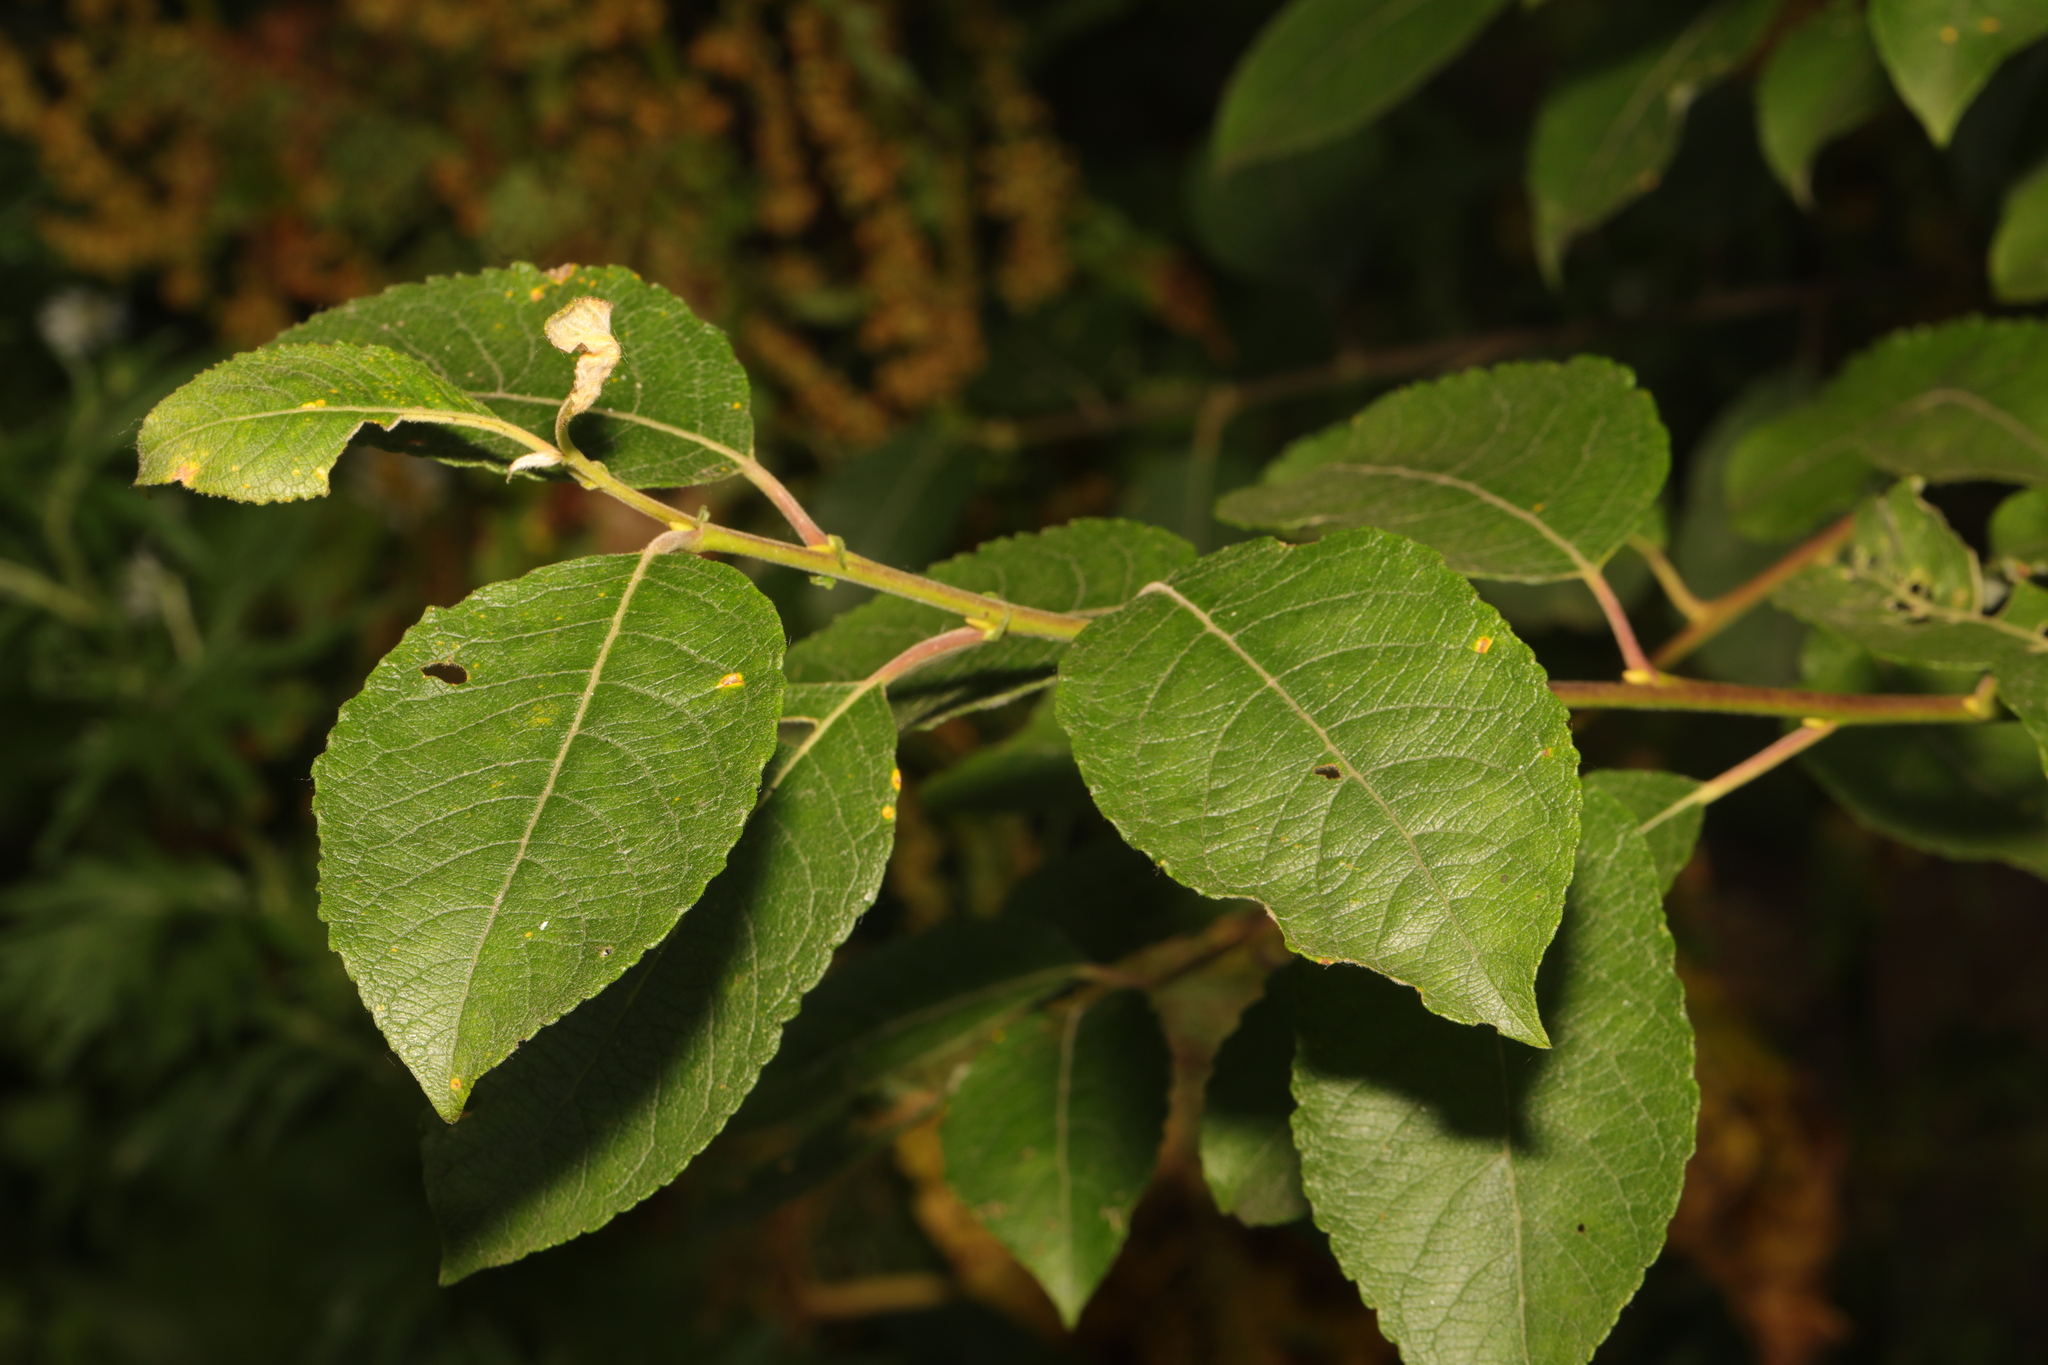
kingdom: Plantae
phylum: Tracheophyta
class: Magnoliopsida
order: Malpighiales
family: Salicaceae
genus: Salix
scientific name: Salix caprea
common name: Goat willow
